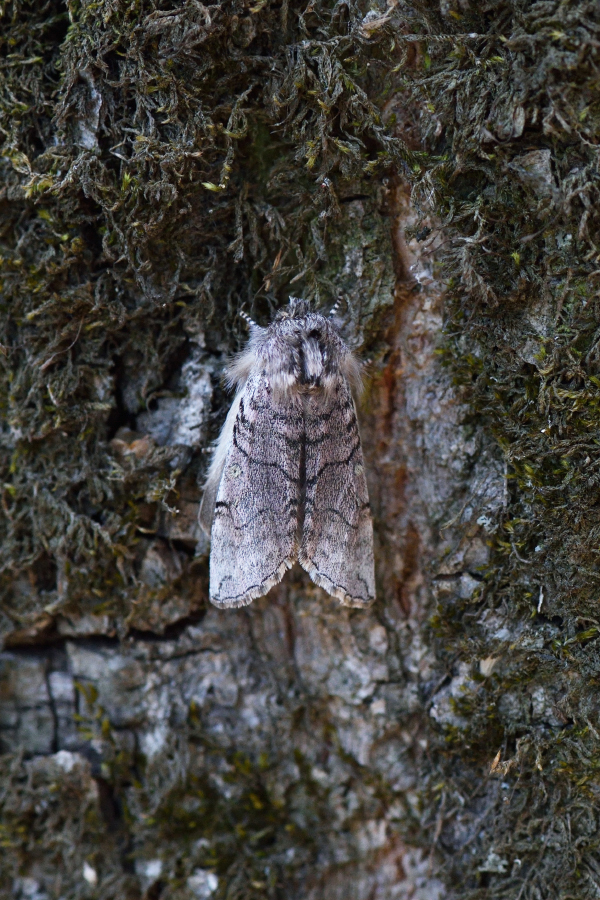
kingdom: Animalia
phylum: Arthropoda
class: Insecta
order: Lepidoptera
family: Drepanidae
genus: Achlya
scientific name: Achlya flavicornis
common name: Yellow horned
